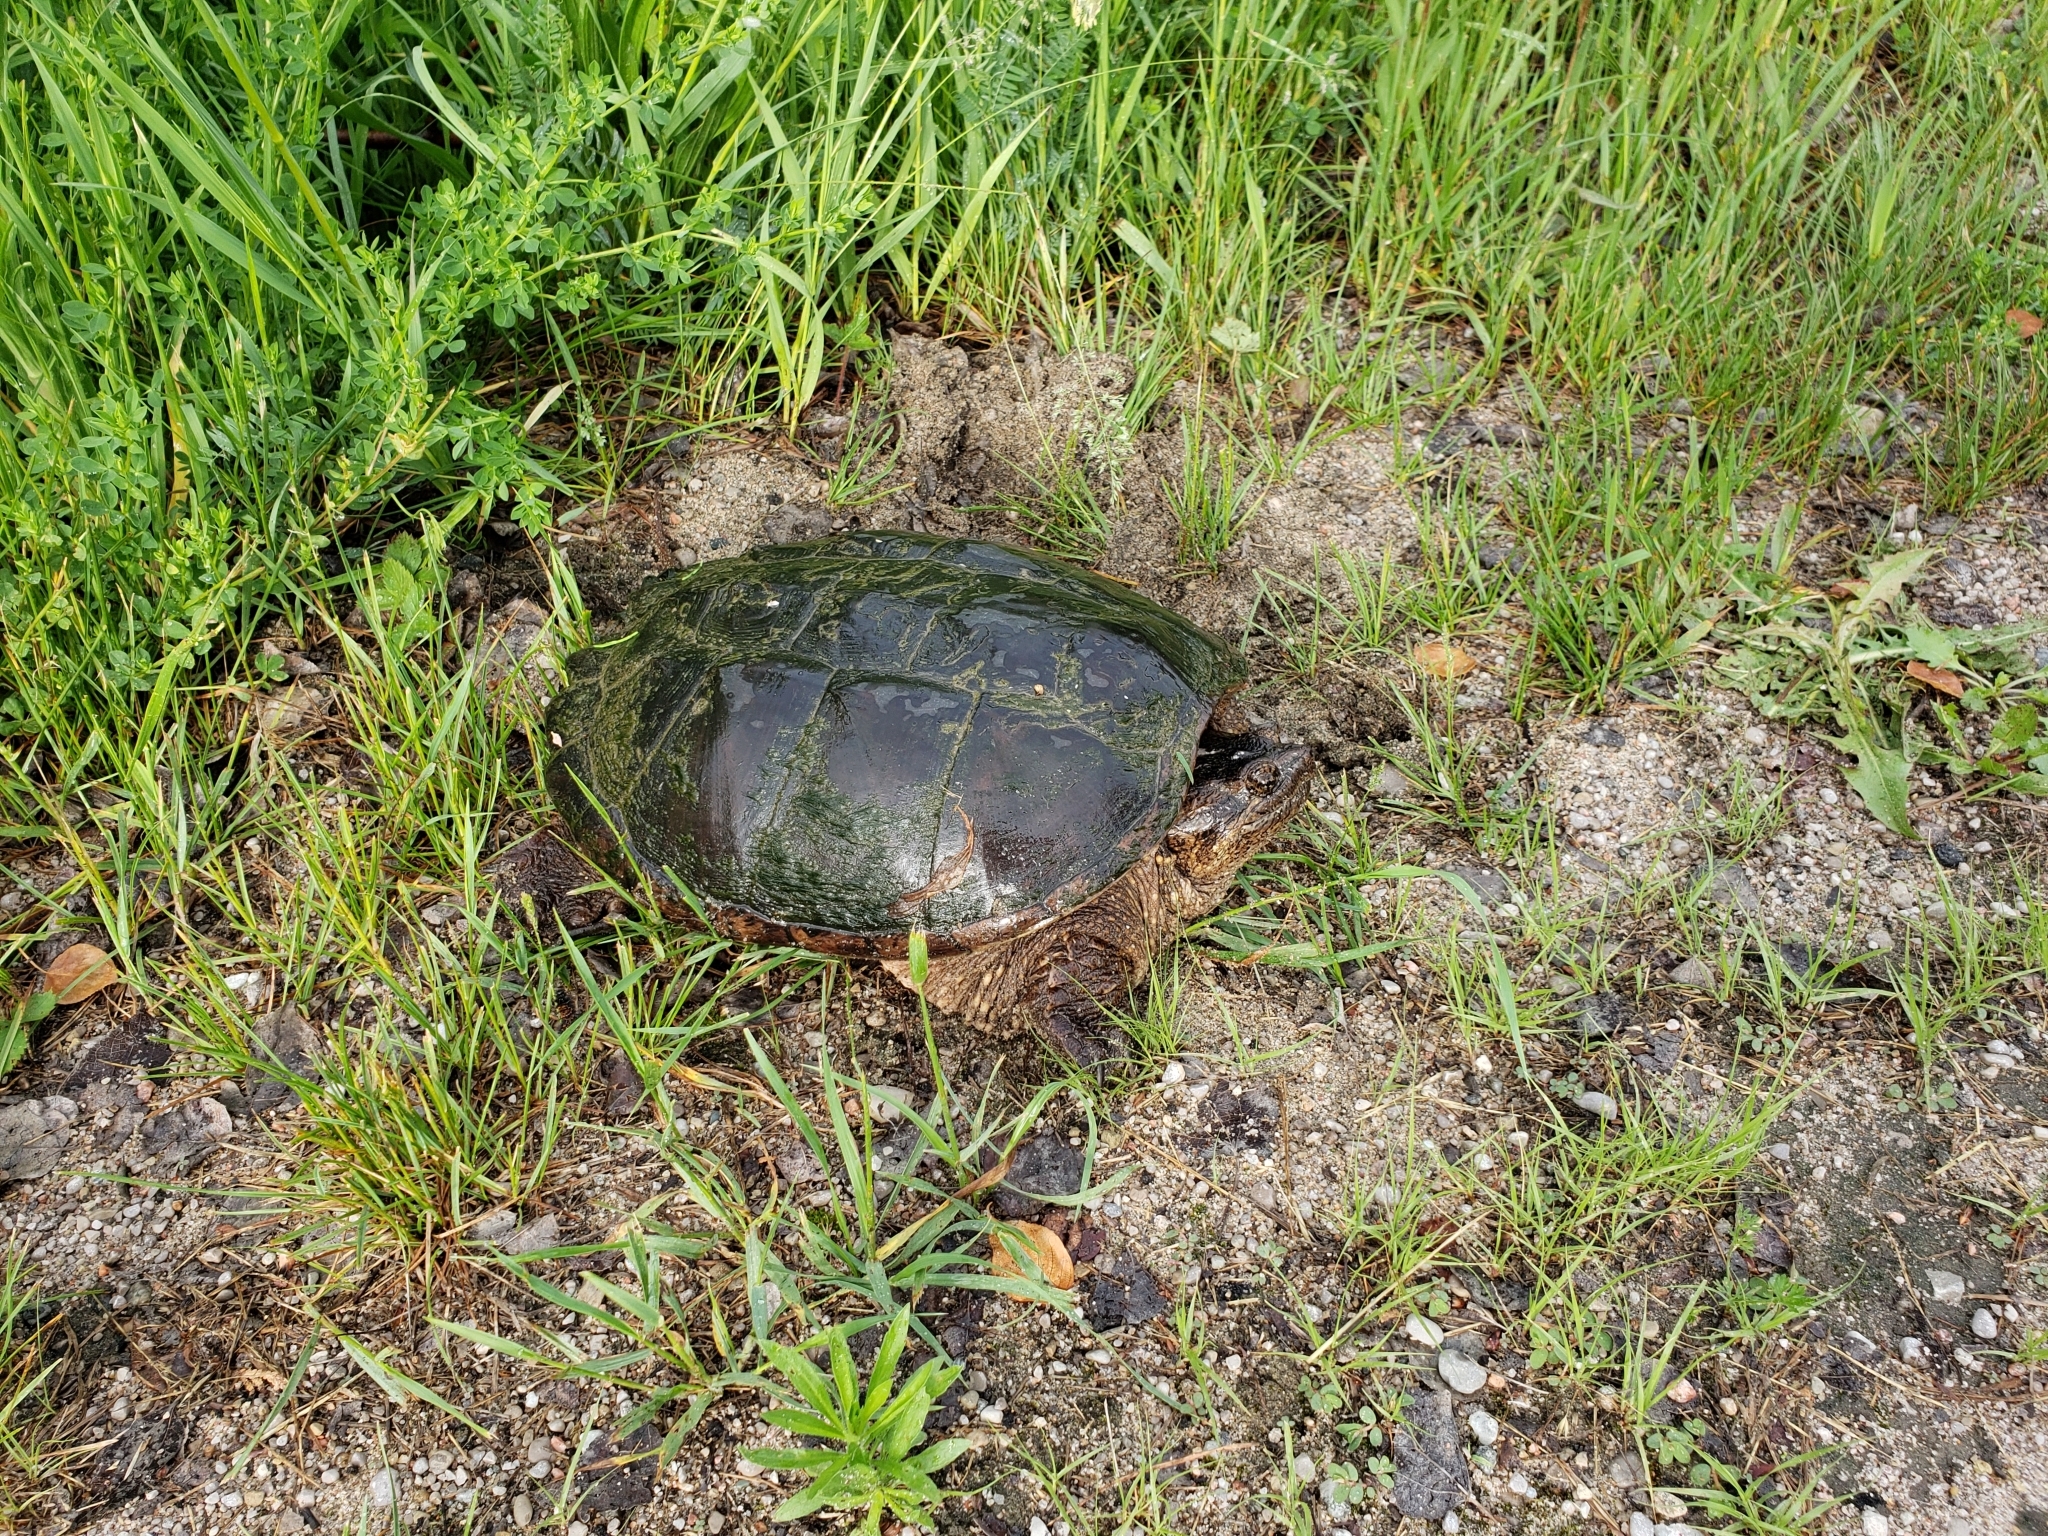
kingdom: Animalia
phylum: Chordata
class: Testudines
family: Chelydridae
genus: Chelydra
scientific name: Chelydra serpentina
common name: Common snapping turtle
